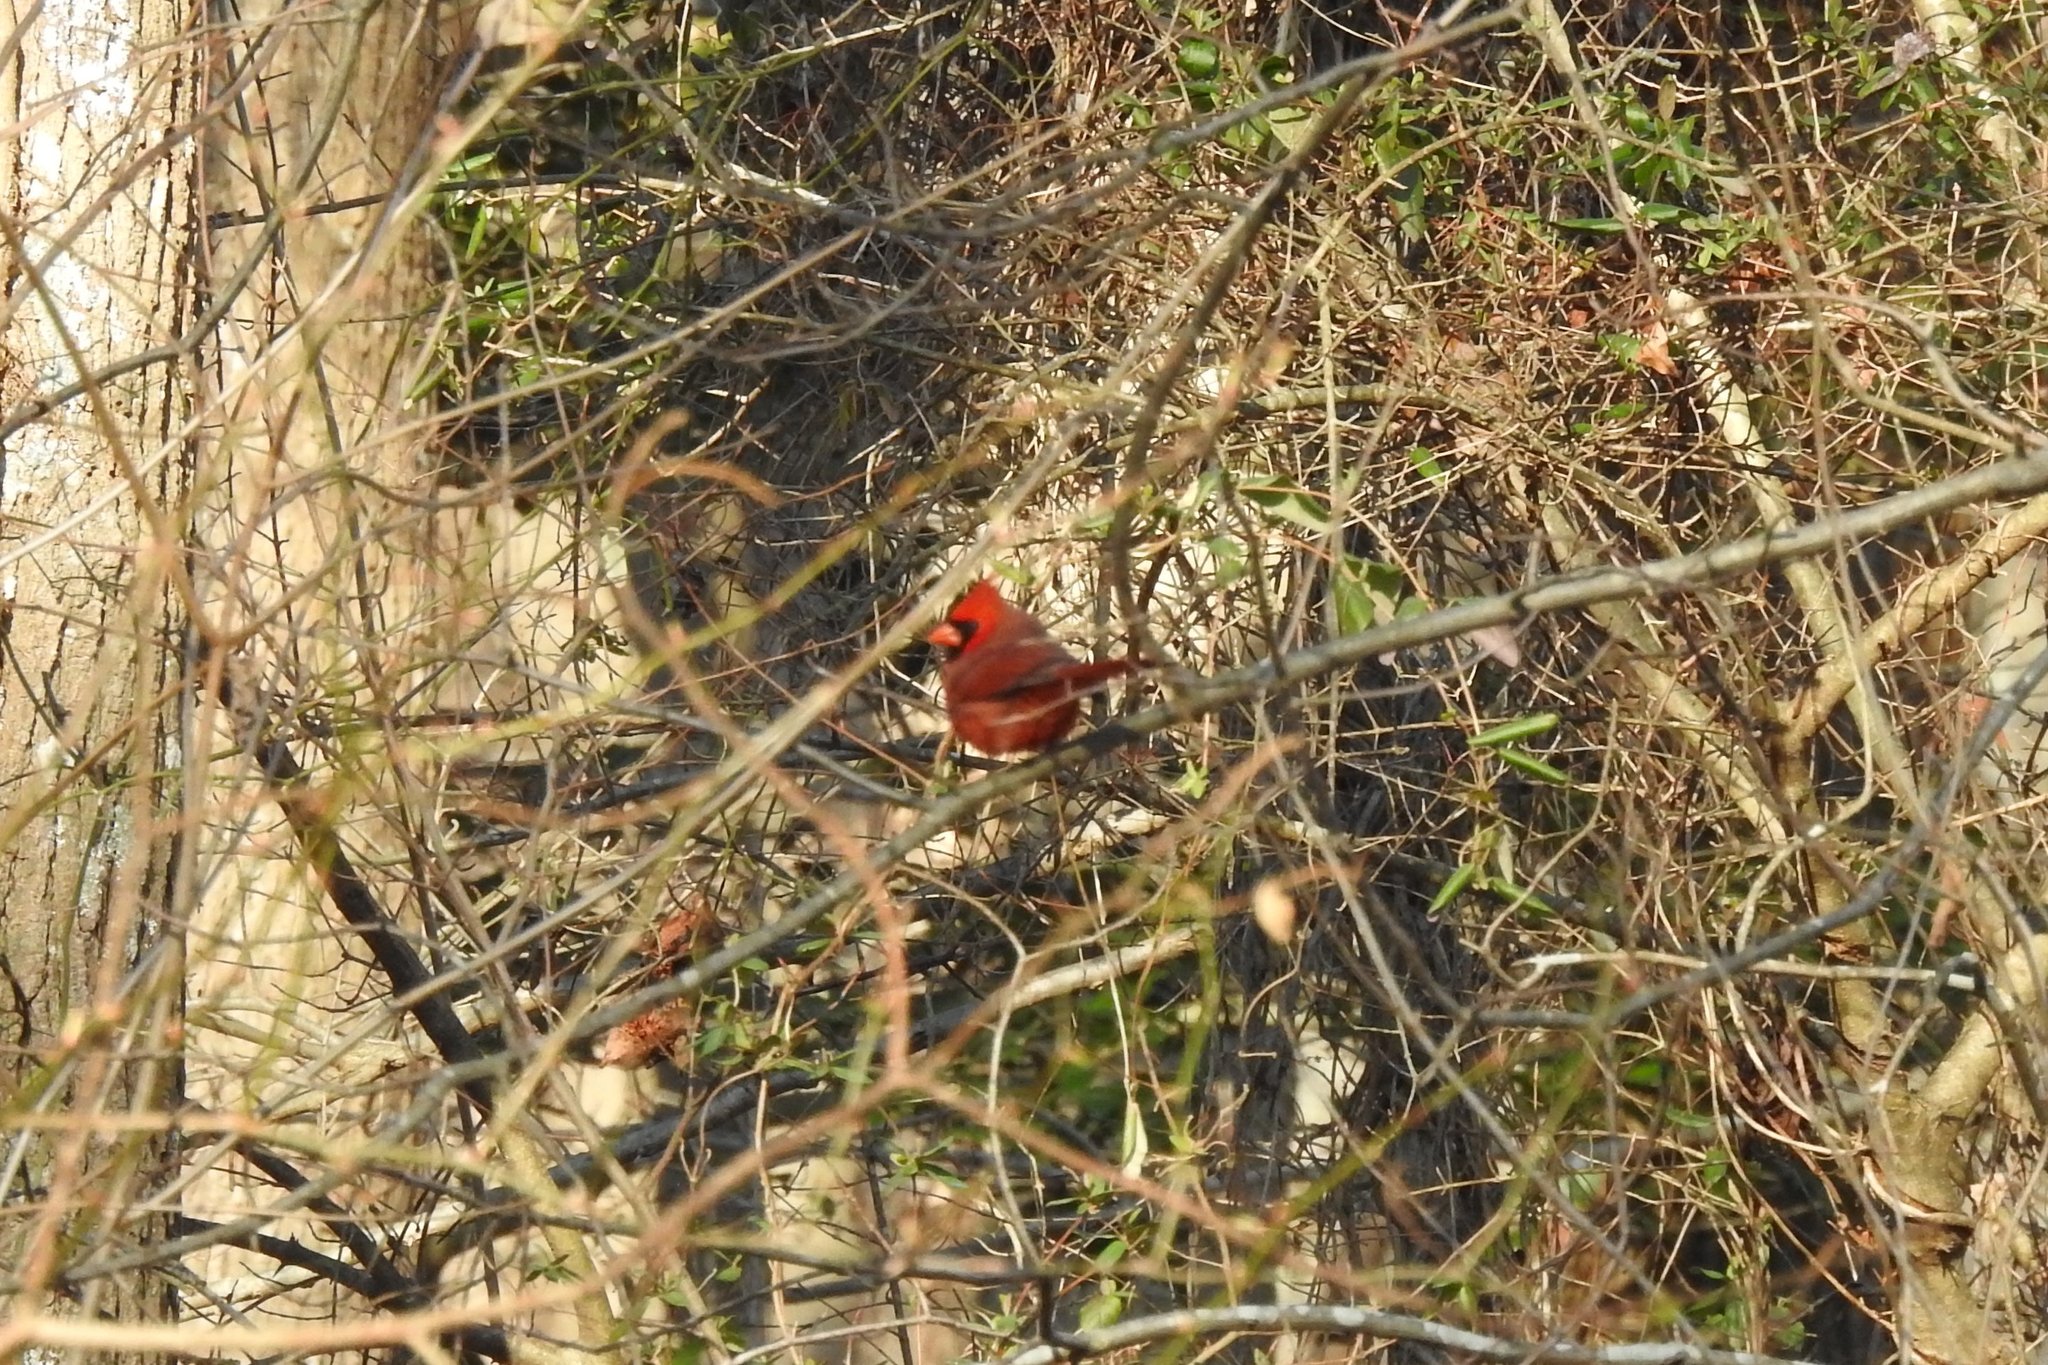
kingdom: Animalia
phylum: Chordata
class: Aves
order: Passeriformes
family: Cardinalidae
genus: Cardinalis
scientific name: Cardinalis cardinalis
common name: Northern cardinal
